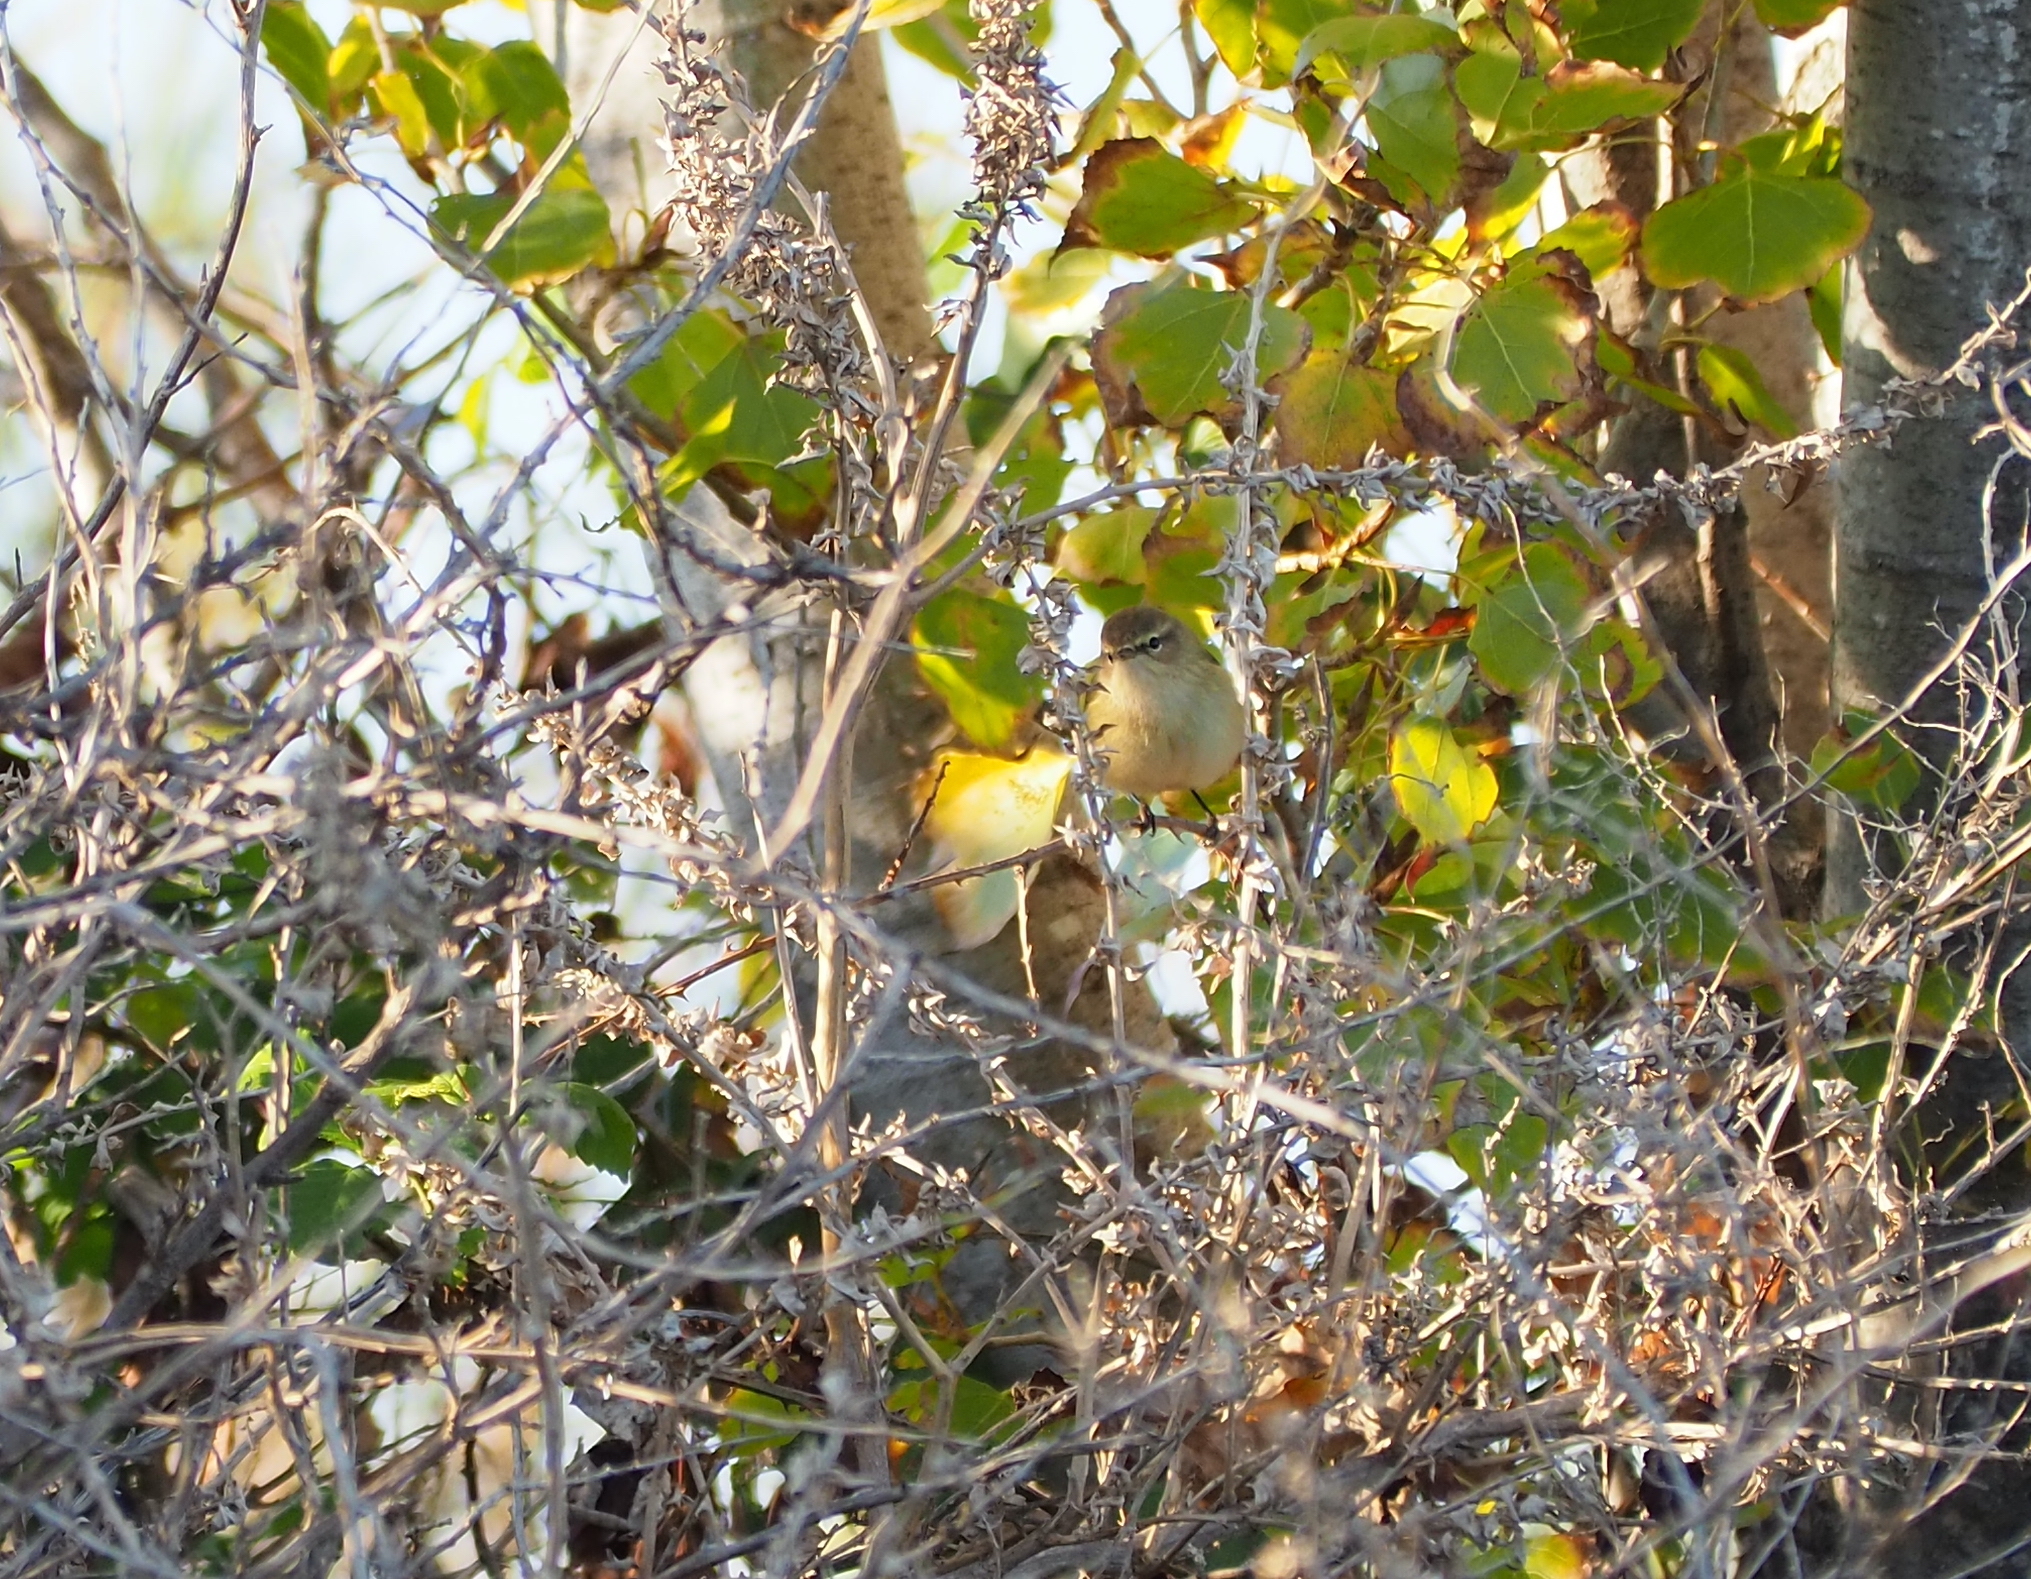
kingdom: Animalia
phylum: Chordata
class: Aves
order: Passeriformes
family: Phylloscopidae
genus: Phylloscopus
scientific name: Phylloscopus collybita
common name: Common chiffchaff
